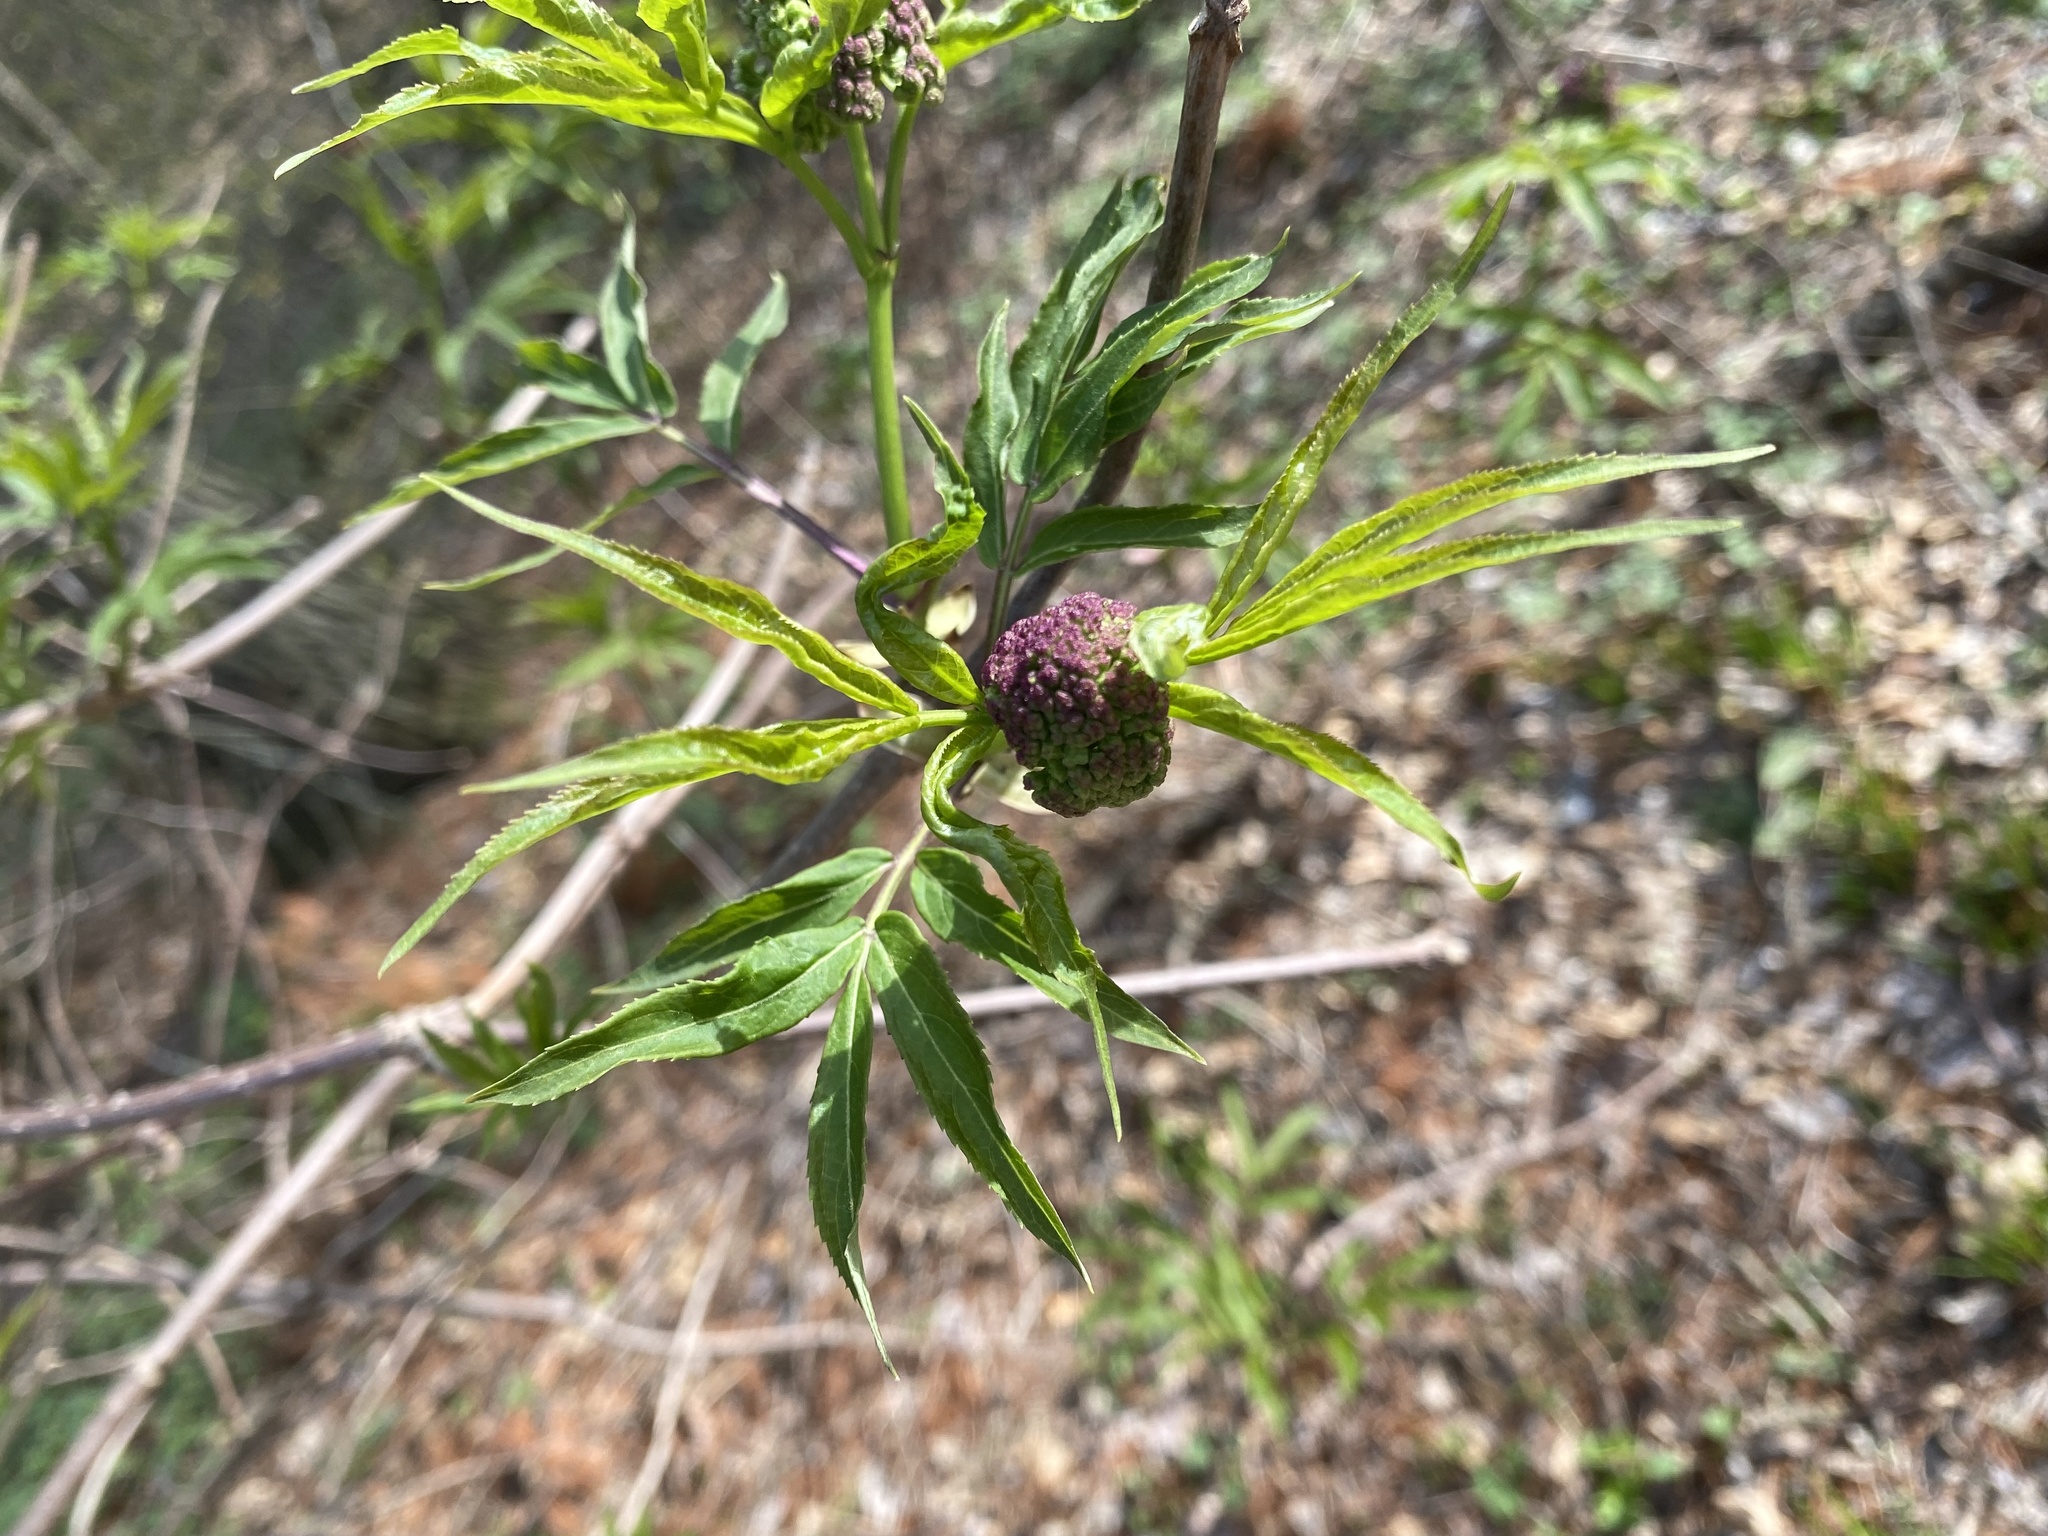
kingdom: Plantae
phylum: Tracheophyta
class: Magnoliopsida
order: Dipsacales
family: Viburnaceae
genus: Sambucus
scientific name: Sambucus racemosa
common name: Red-berried elder
